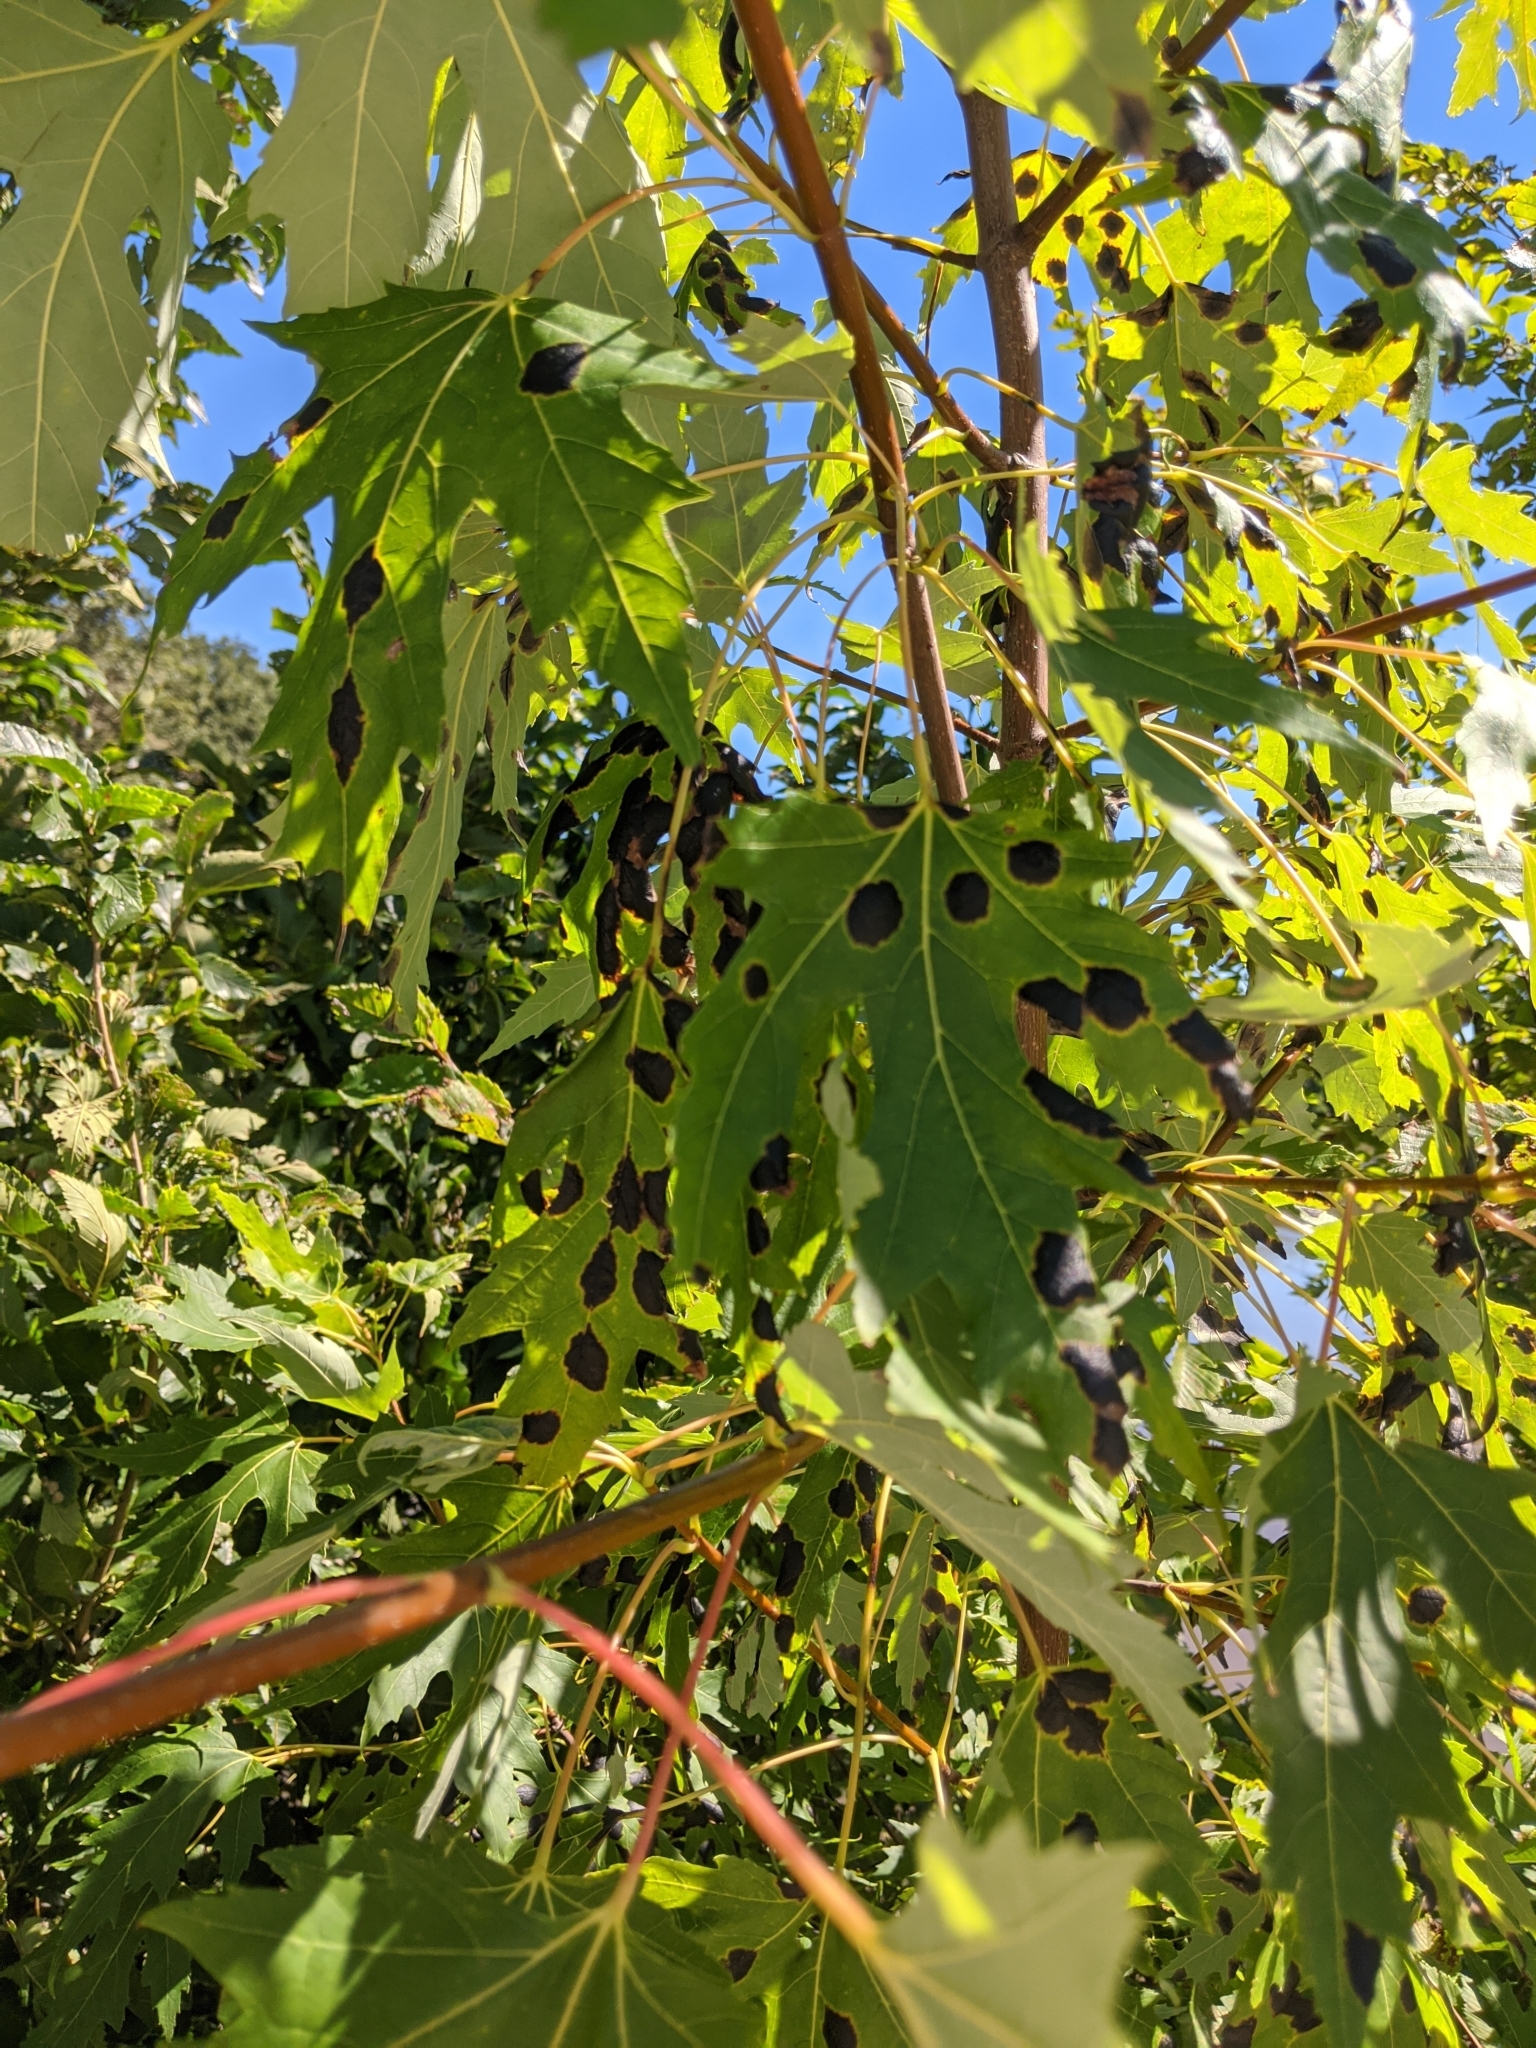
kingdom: Fungi
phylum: Ascomycota
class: Leotiomycetes
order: Rhytismatales
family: Rhytismataceae
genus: Rhytisma
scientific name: Rhytisma americanum
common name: American tar spot
